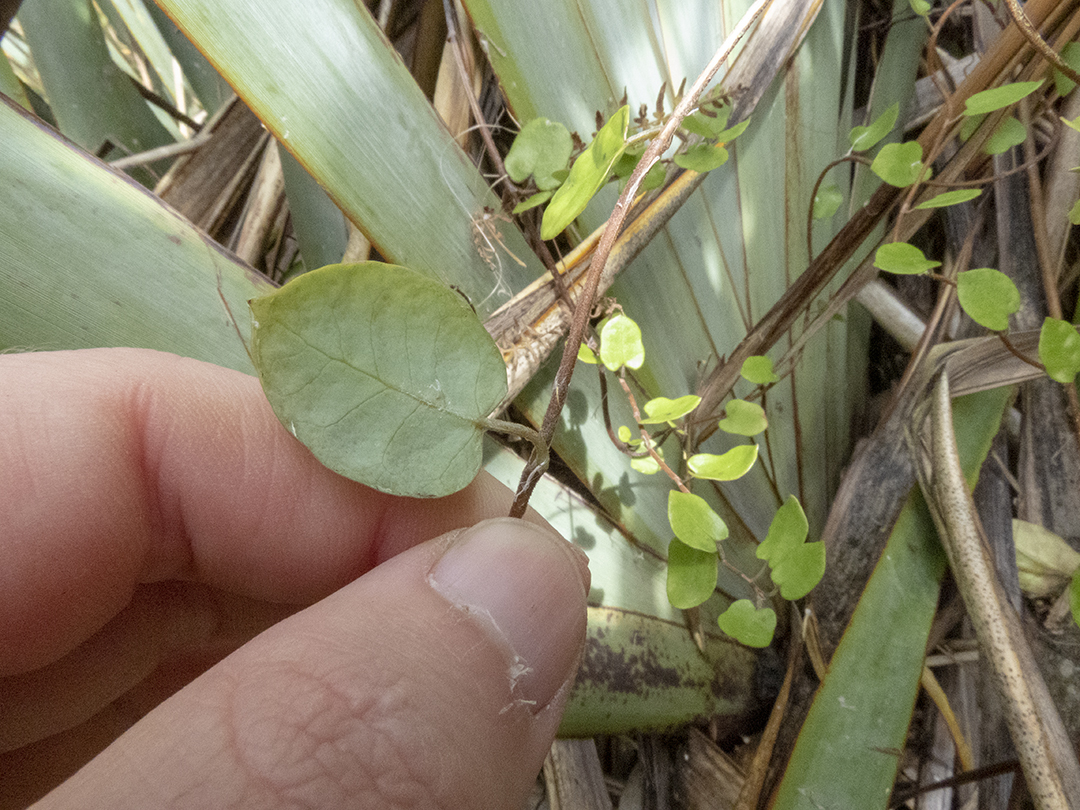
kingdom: Plantae
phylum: Tracheophyta
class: Magnoliopsida
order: Caryophyllales
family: Polygonaceae
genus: Muehlenbeckia
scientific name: Muehlenbeckia australis
